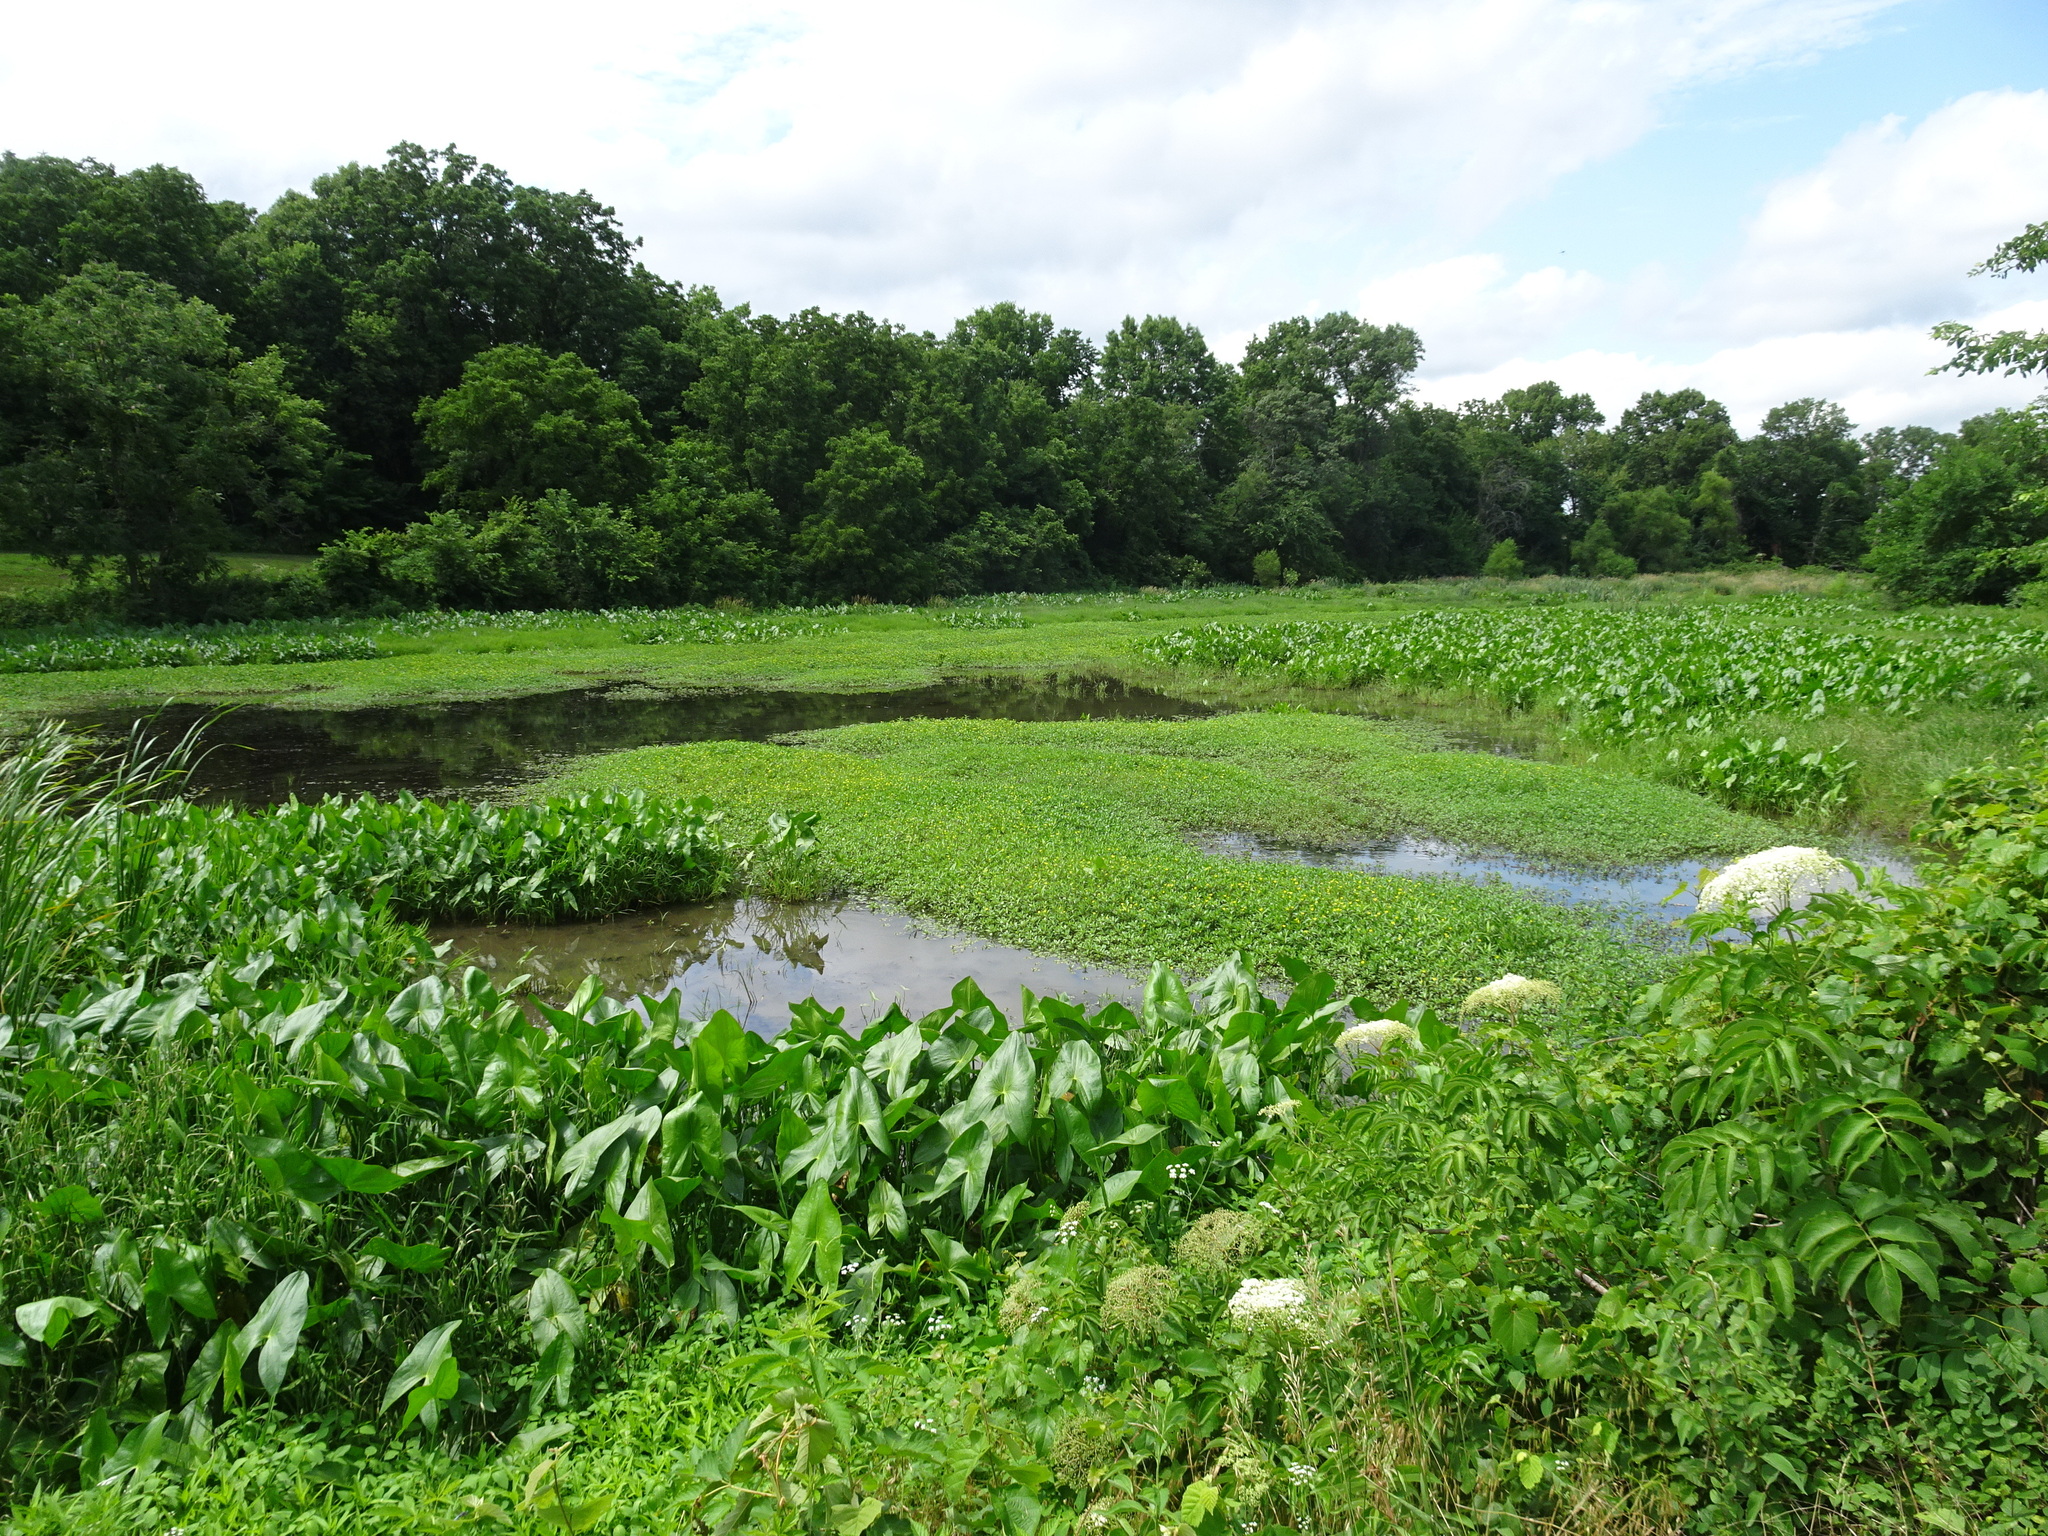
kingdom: Plantae
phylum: Tracheophyta
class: Liliopsida
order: Alismatales
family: Alismataceae
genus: Sagittaria
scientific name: Sagittaria
